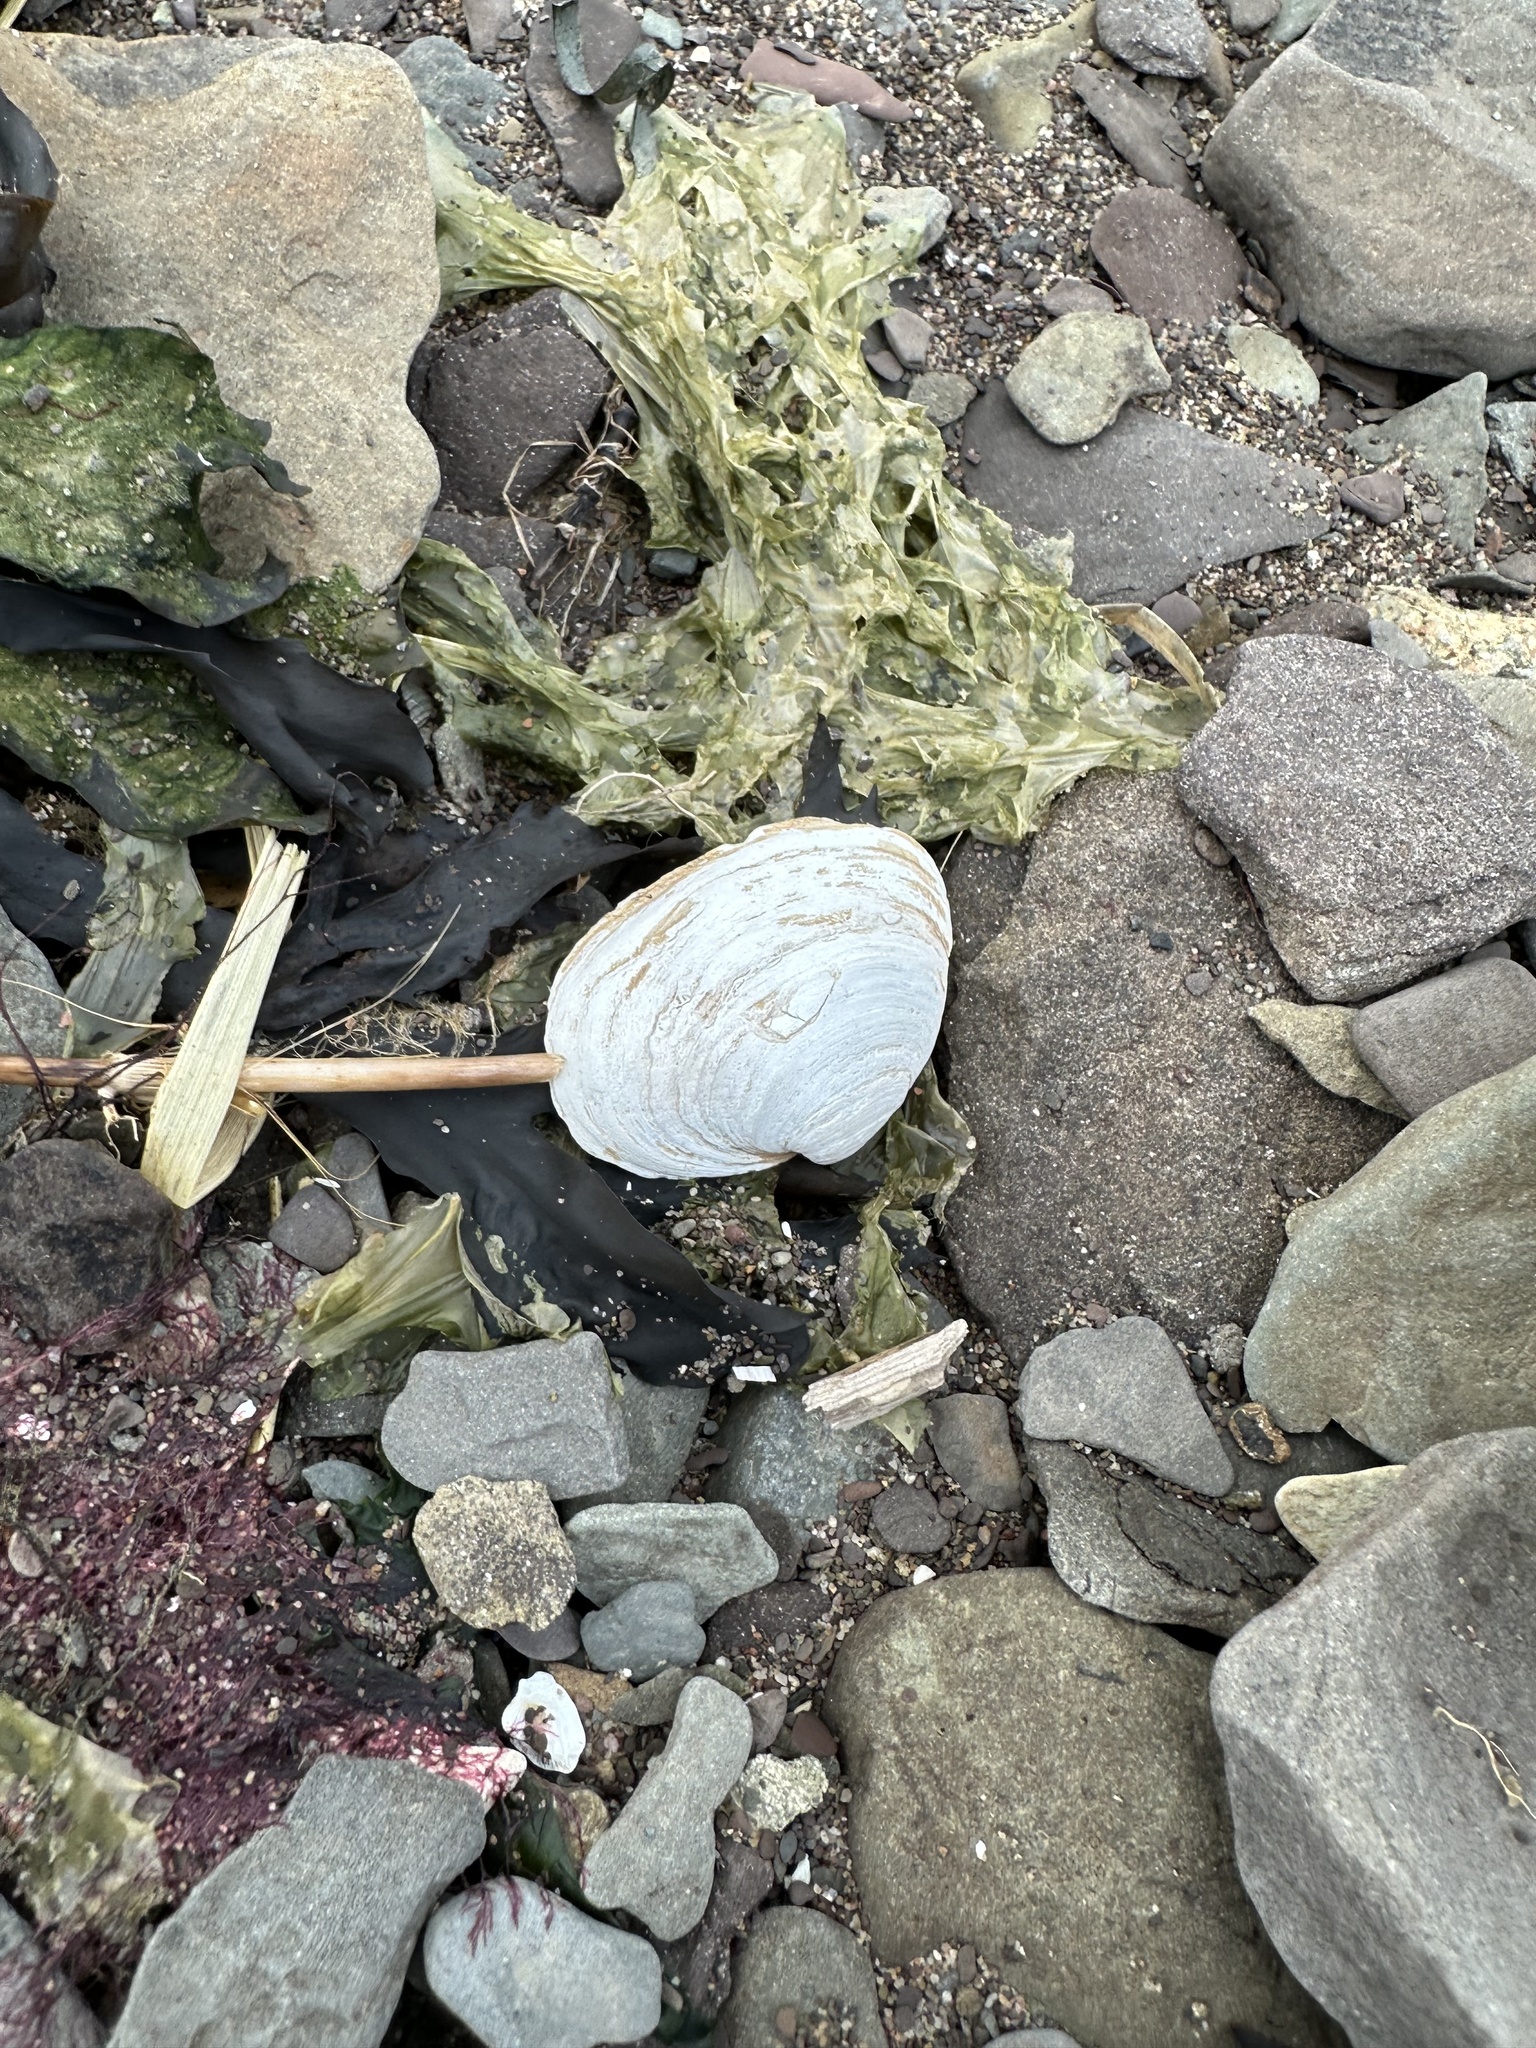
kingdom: Animalia
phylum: Mollusca
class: Bivalvia
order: Myida
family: Myidae
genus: Mya
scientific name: Mya arenaria
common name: Soft-shelled clam
